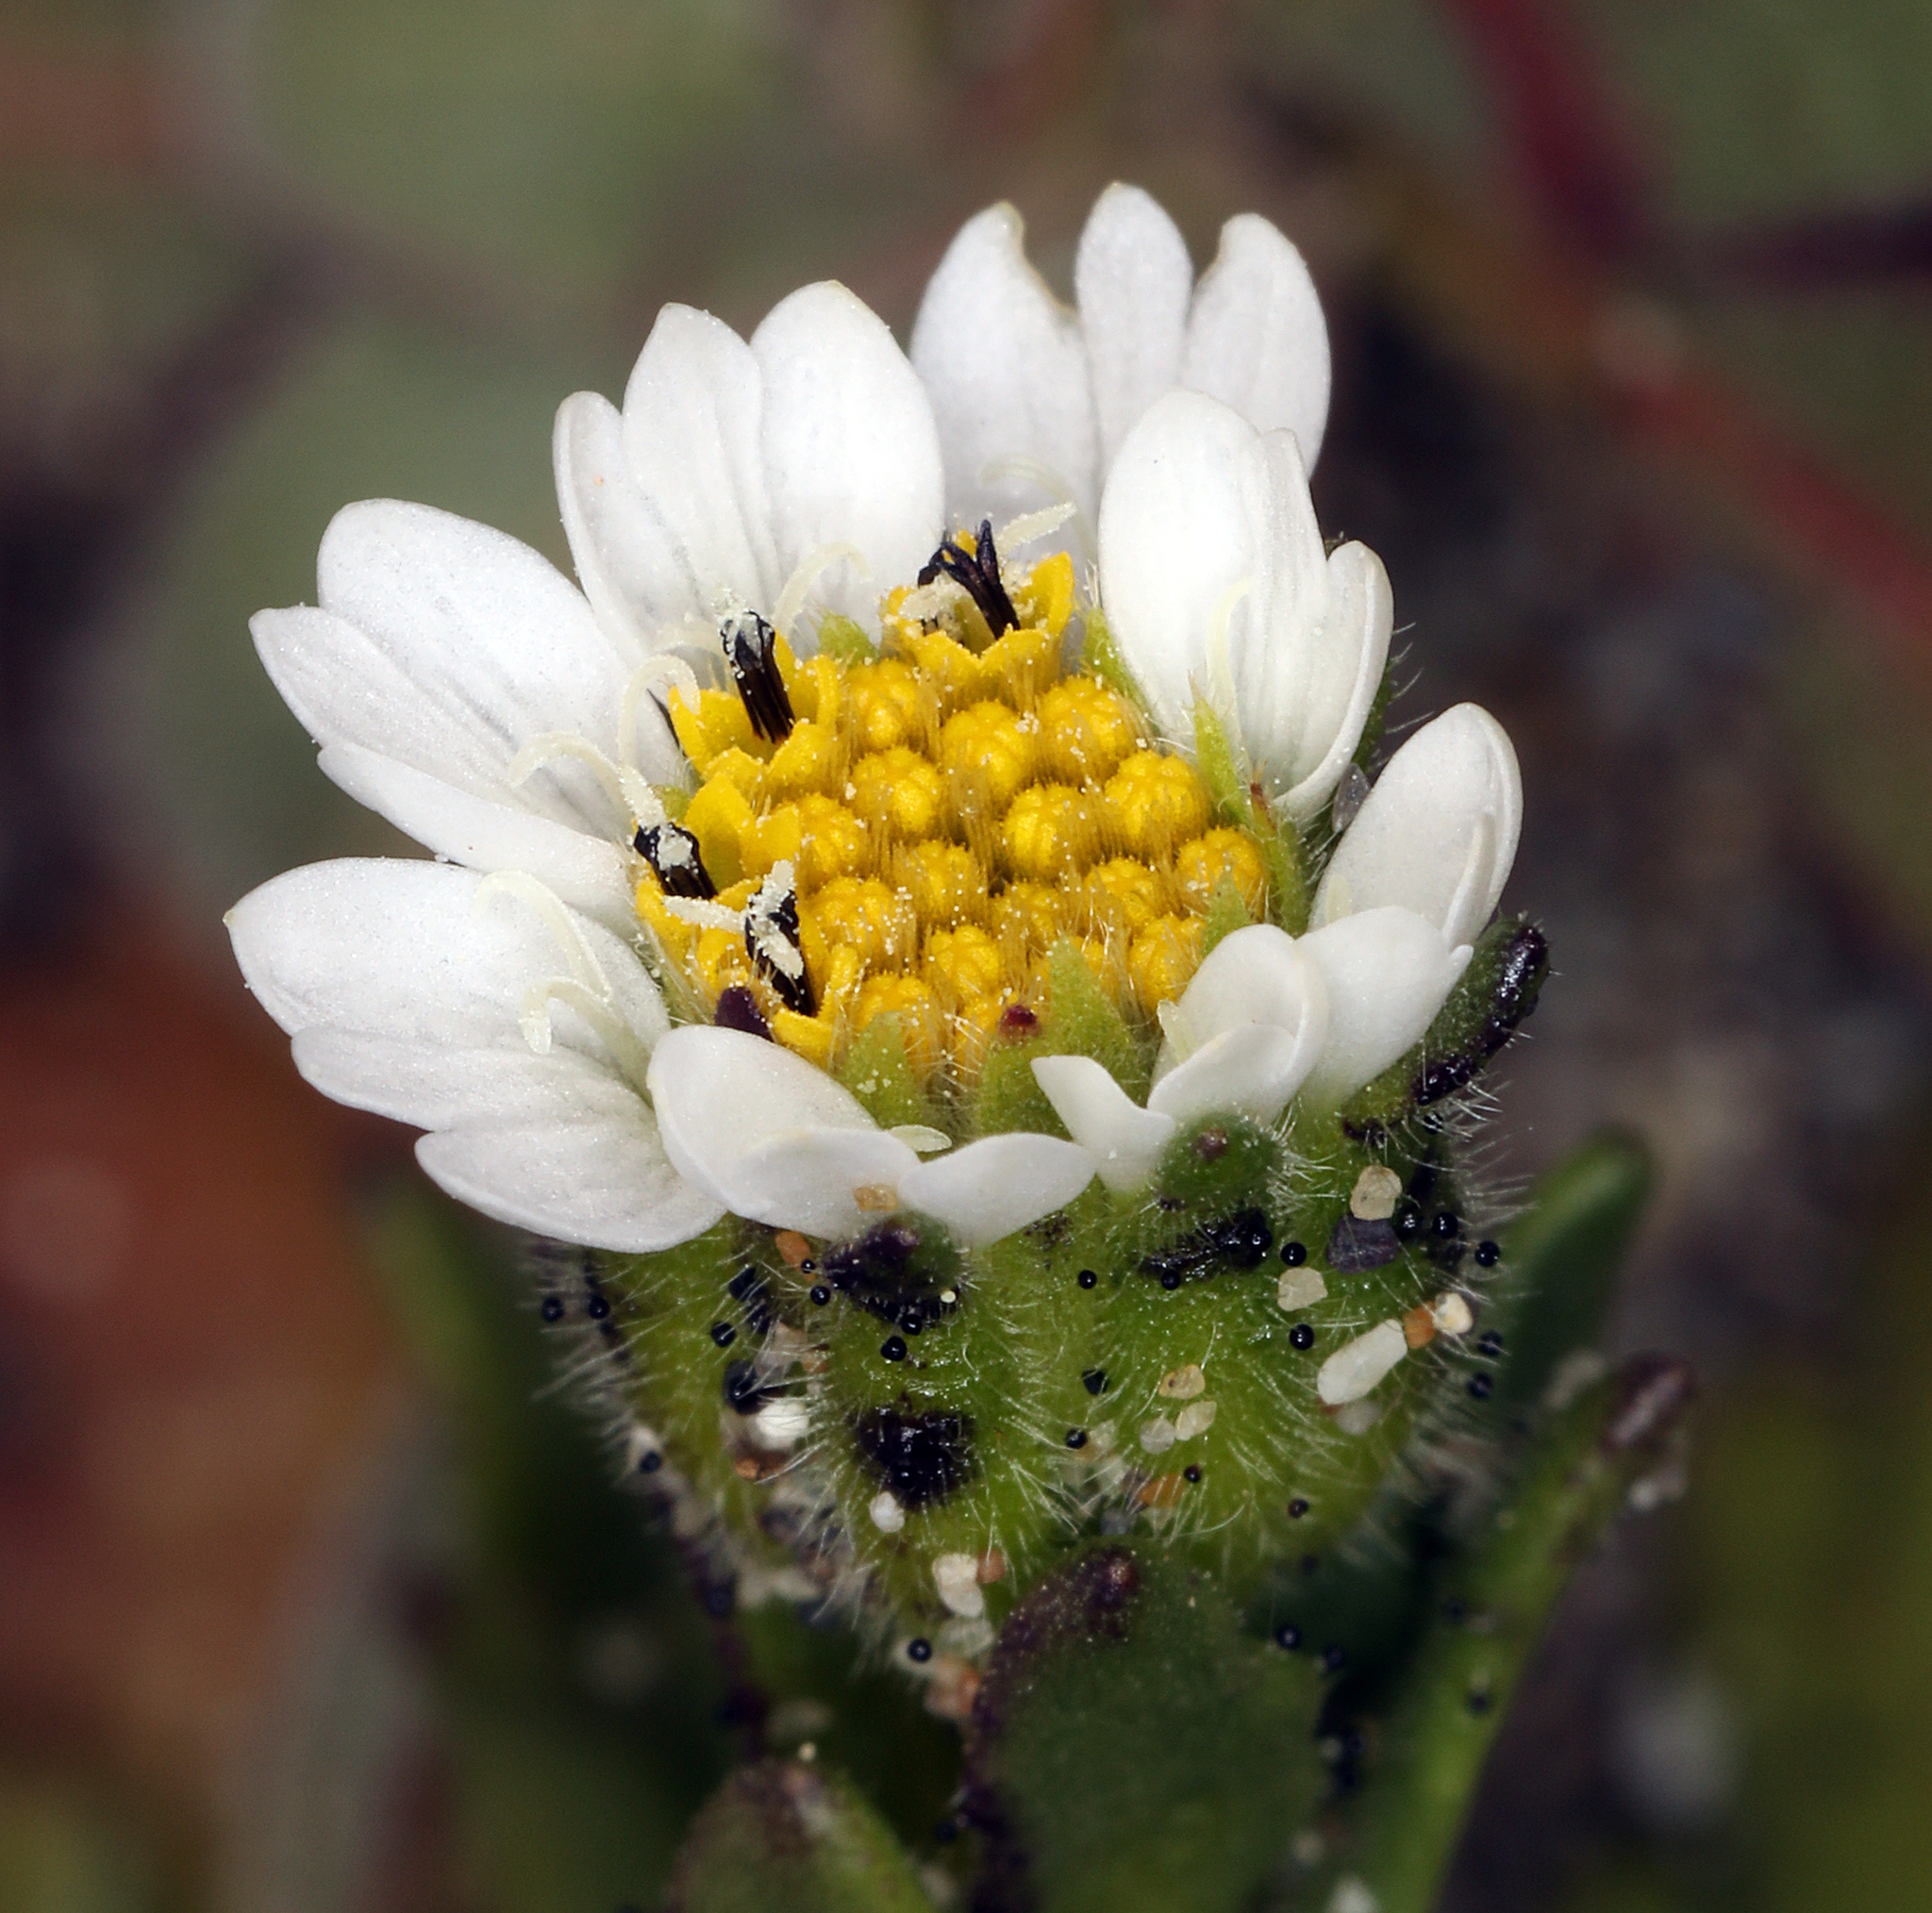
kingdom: Plantae
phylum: Tracheophyta
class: Magnoliopsida
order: Asterales
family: Asteraceae
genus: Layia
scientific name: Layia carnosa
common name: Beach layia
